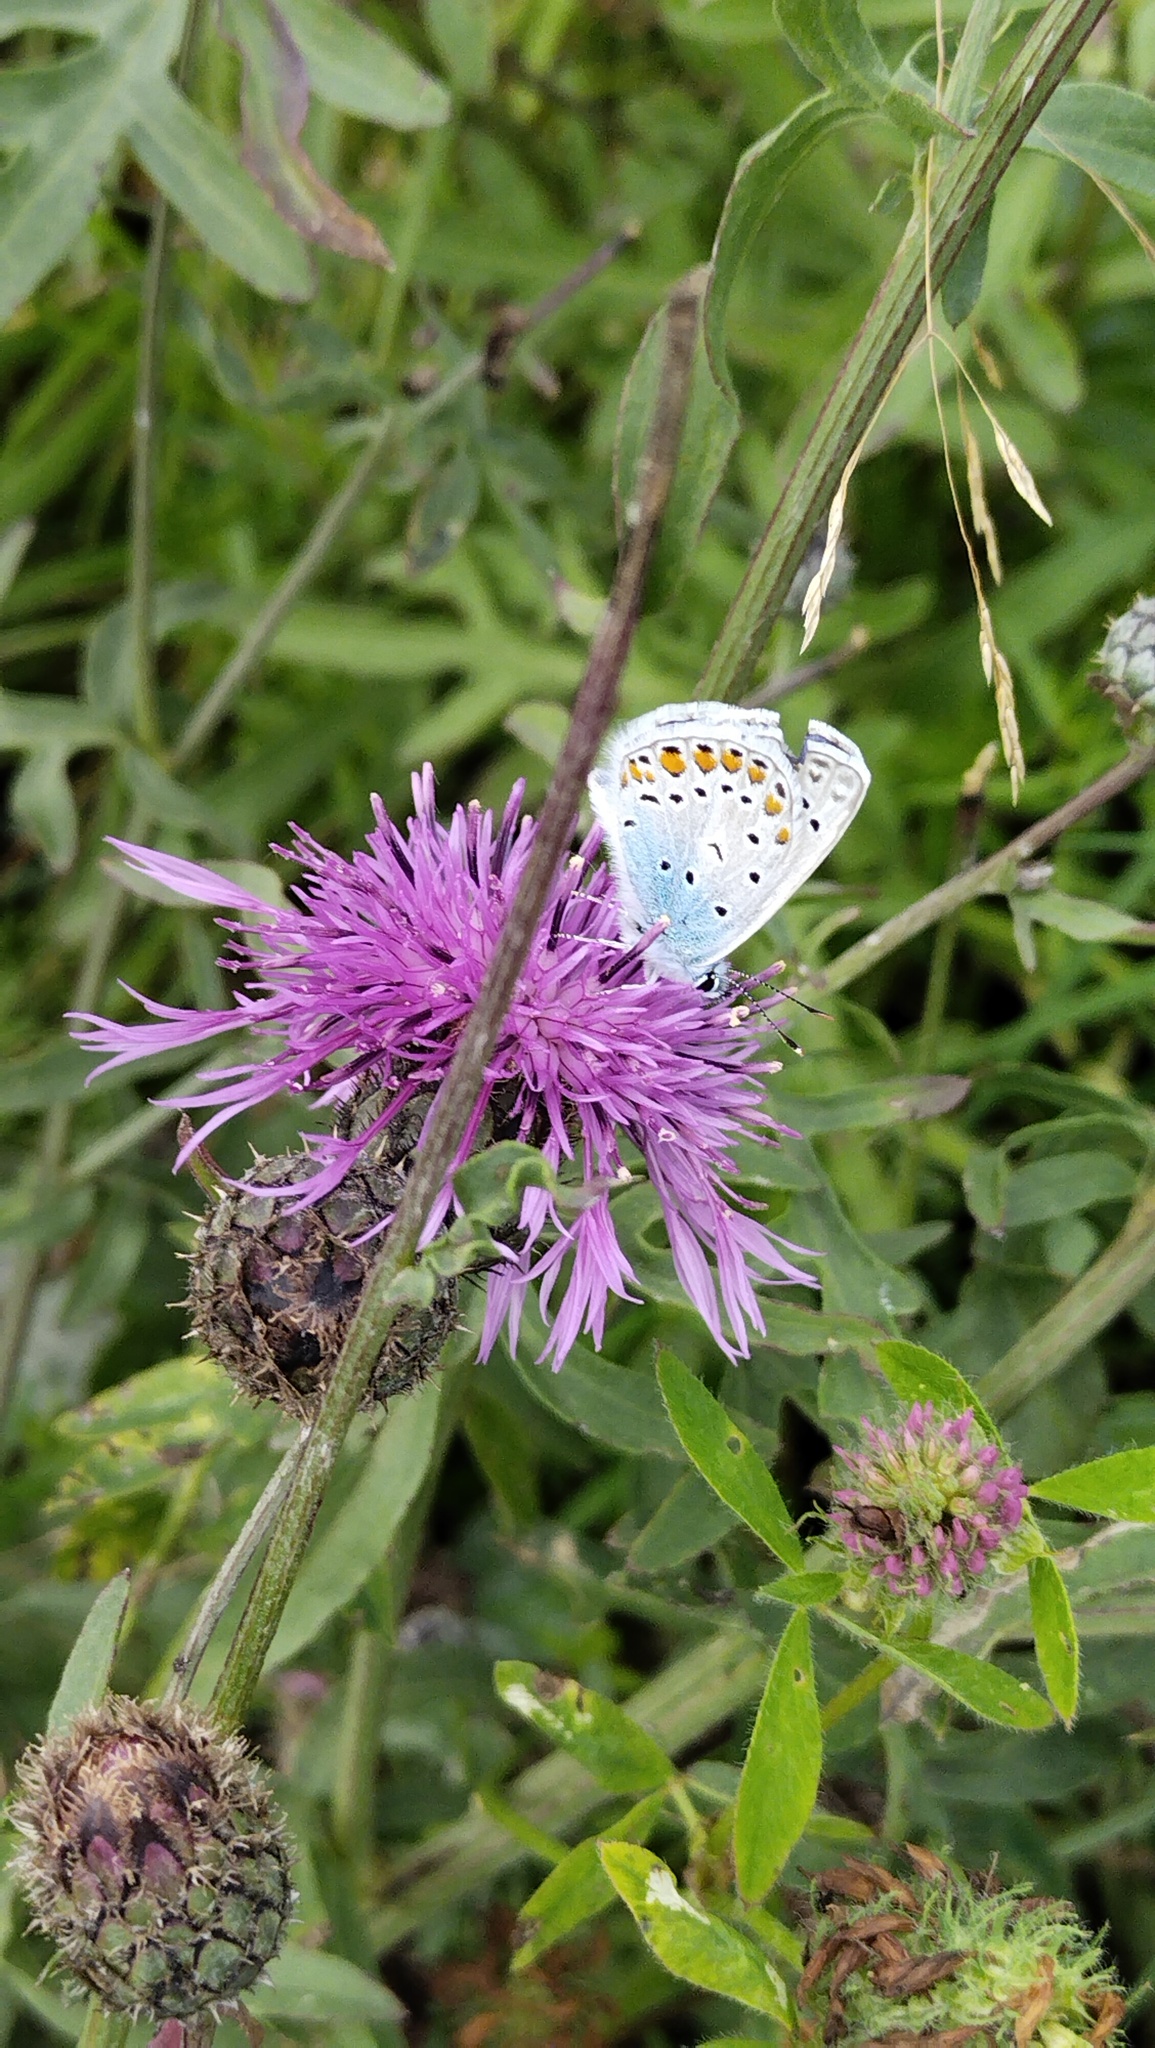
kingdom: Animalia
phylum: Arthropoda
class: Insecta
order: Lepidoptera
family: Lycaenidae
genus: Polyommatus
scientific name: Polyommatus icarus
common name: Common blue
